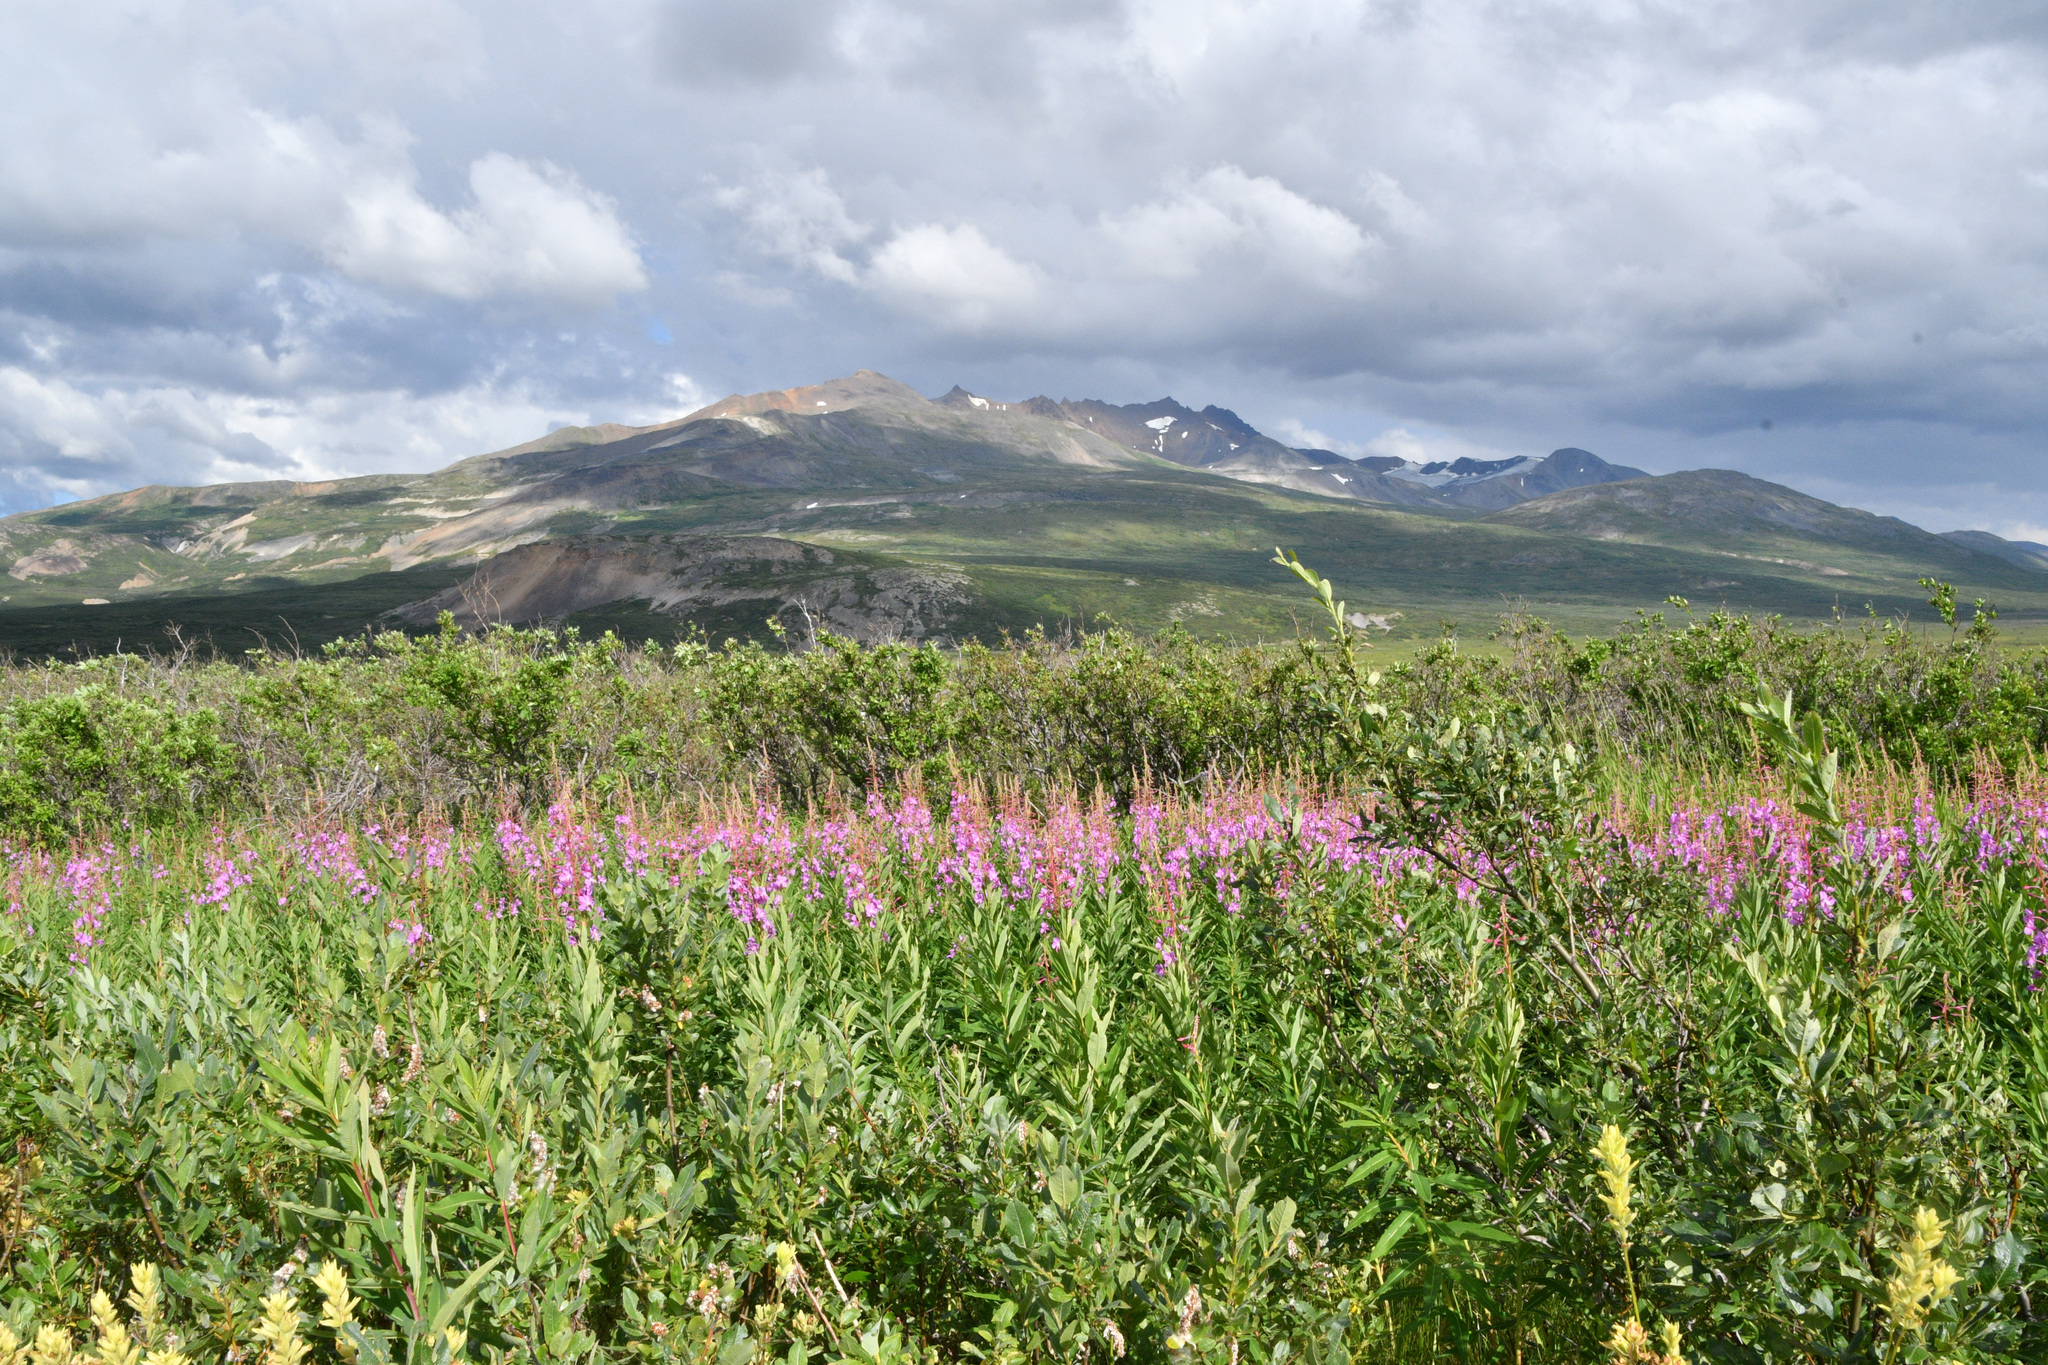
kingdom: Plantae
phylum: Tracheophyta
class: Magnoliopsida
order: Myrtales
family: Onagraceae
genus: Chamaenerion
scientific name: Chamaenerion angustifolium
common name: Fireweed
